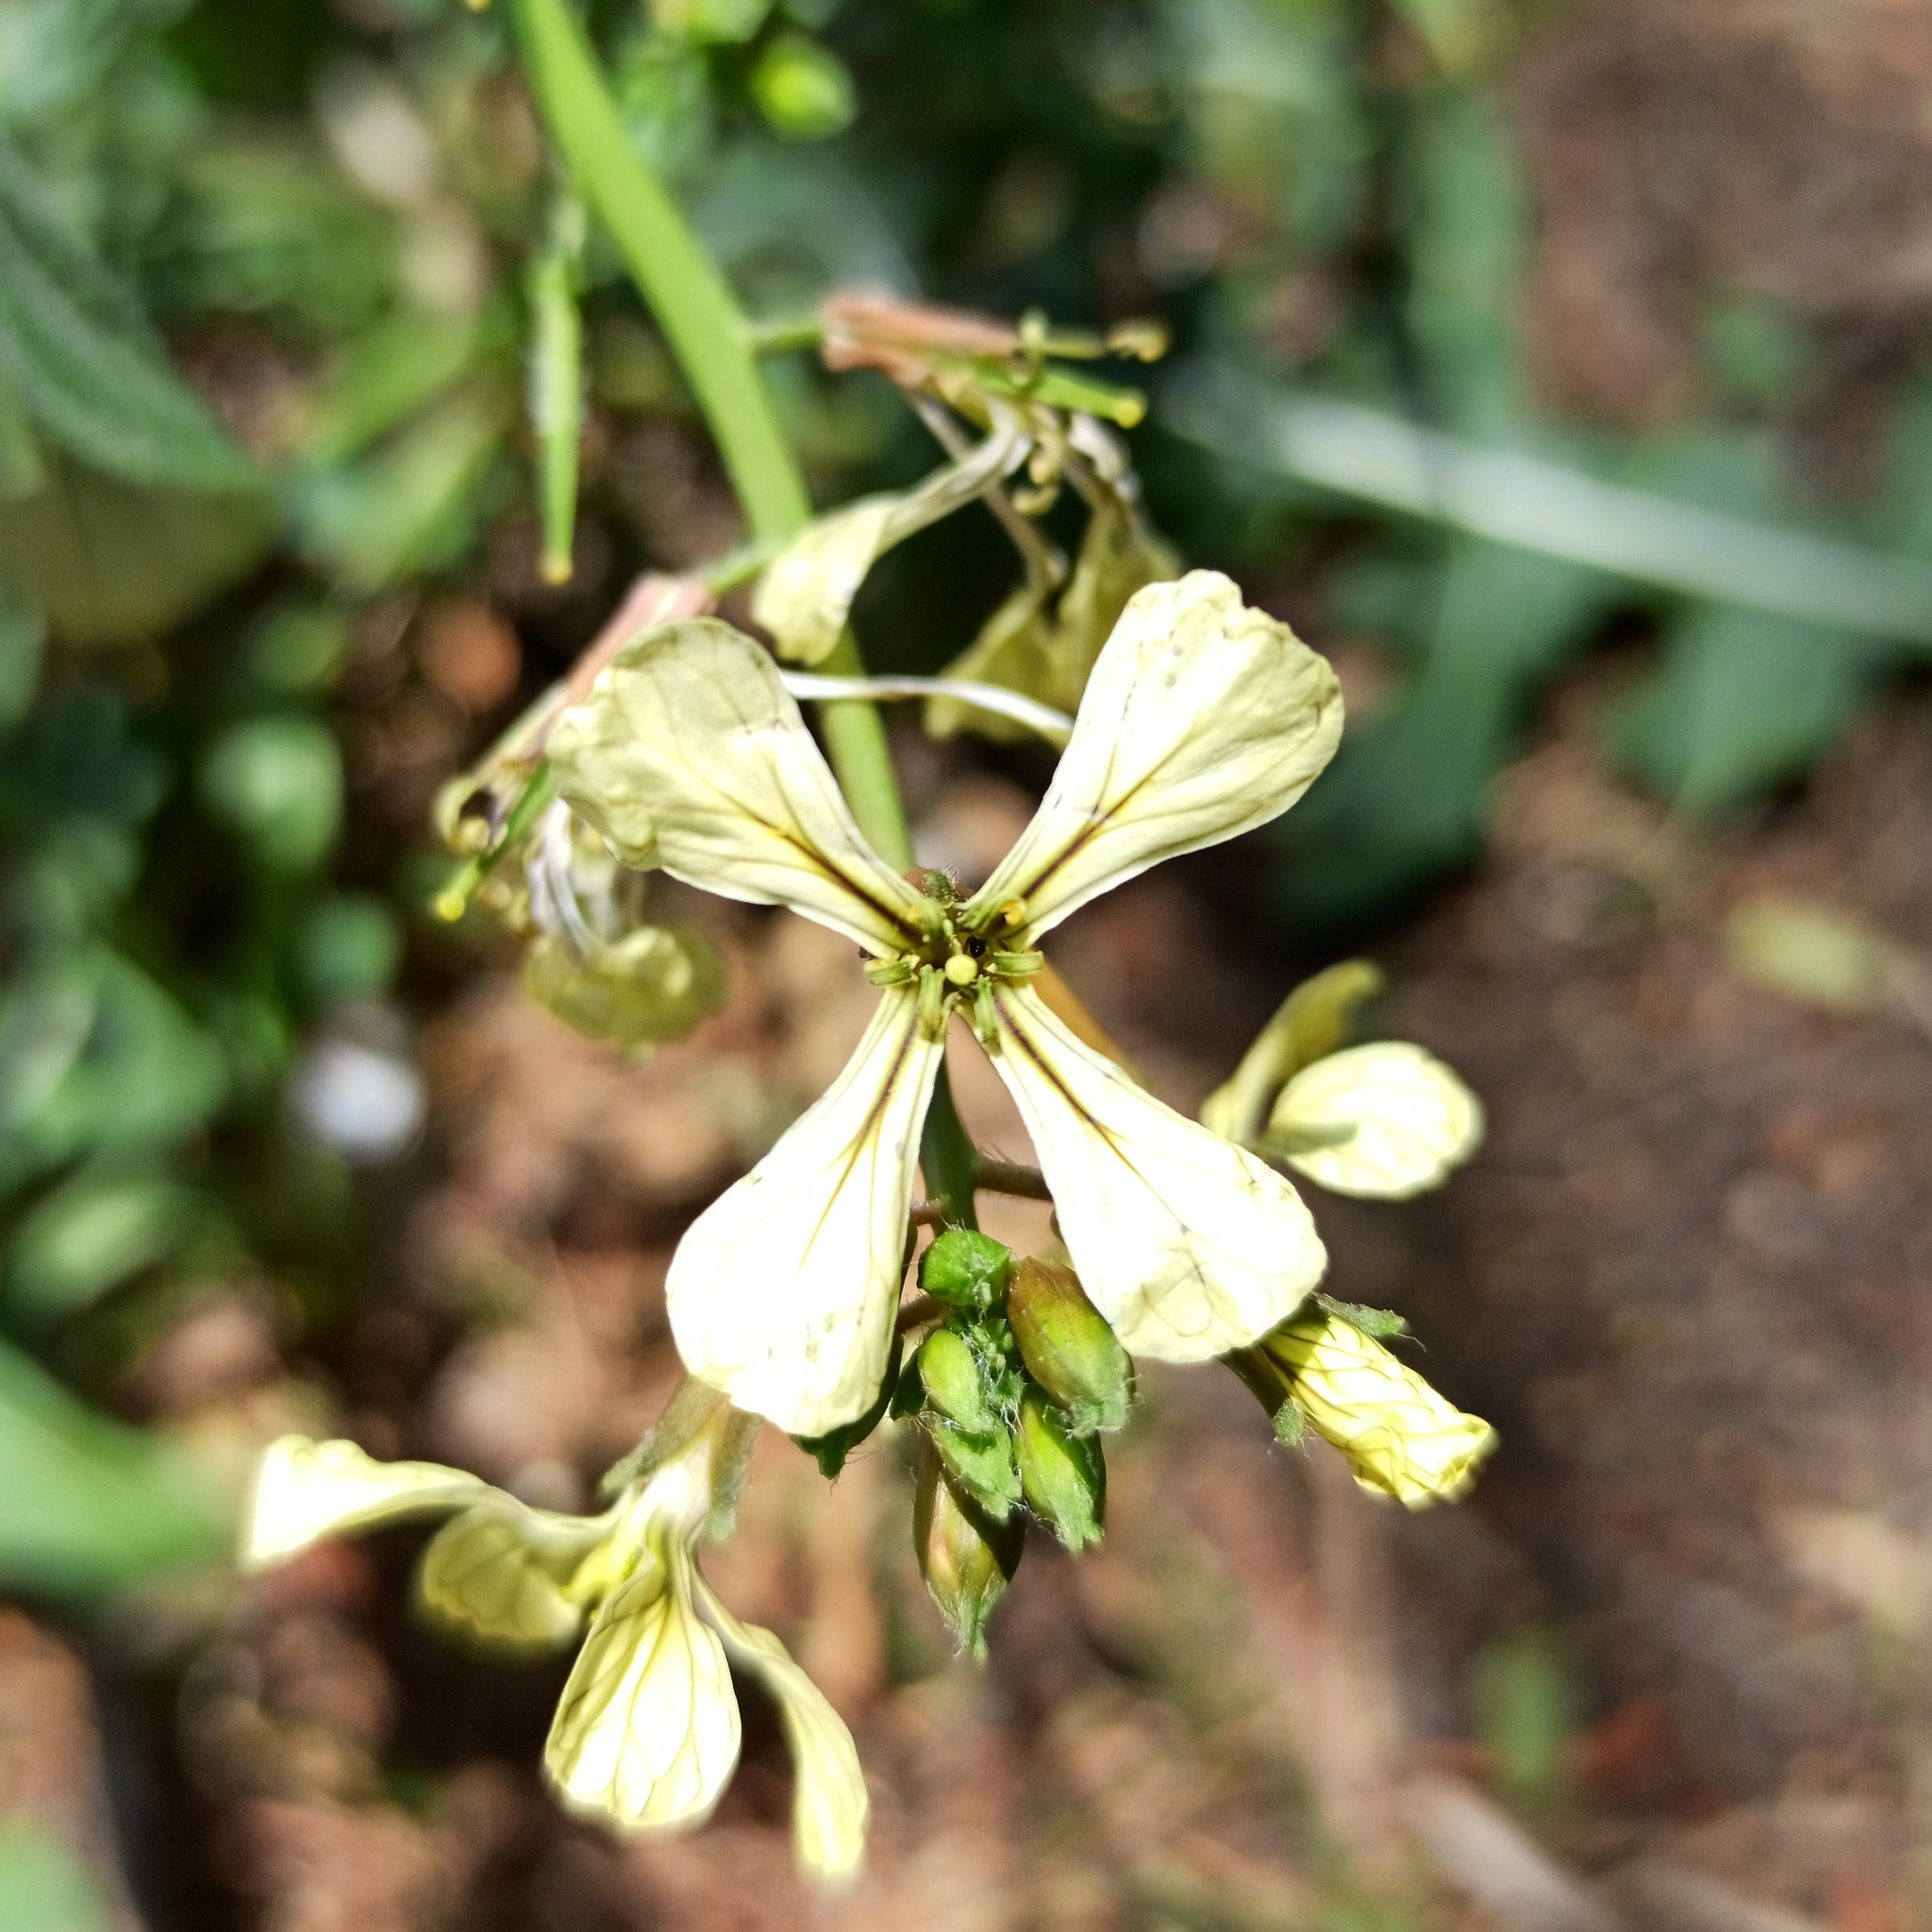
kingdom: Plantae
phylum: Tracheophyta
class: Magnoliopsida
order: Brassicales
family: Brassicaceae
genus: Eruca
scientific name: Eruca vesicaria
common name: Garden rocket
